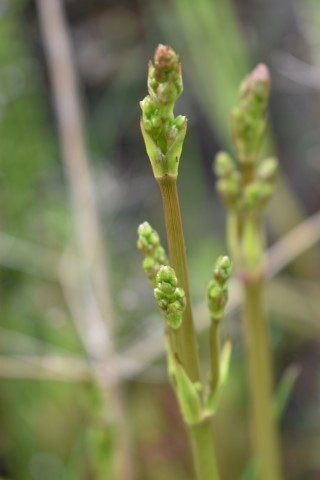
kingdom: Plantae
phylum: Tracheophyta
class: Liliopsida
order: Alismatales
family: Alismataceae
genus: Alisma
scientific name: Alisma lanceolatum
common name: Narrow-leaved water-plantain
